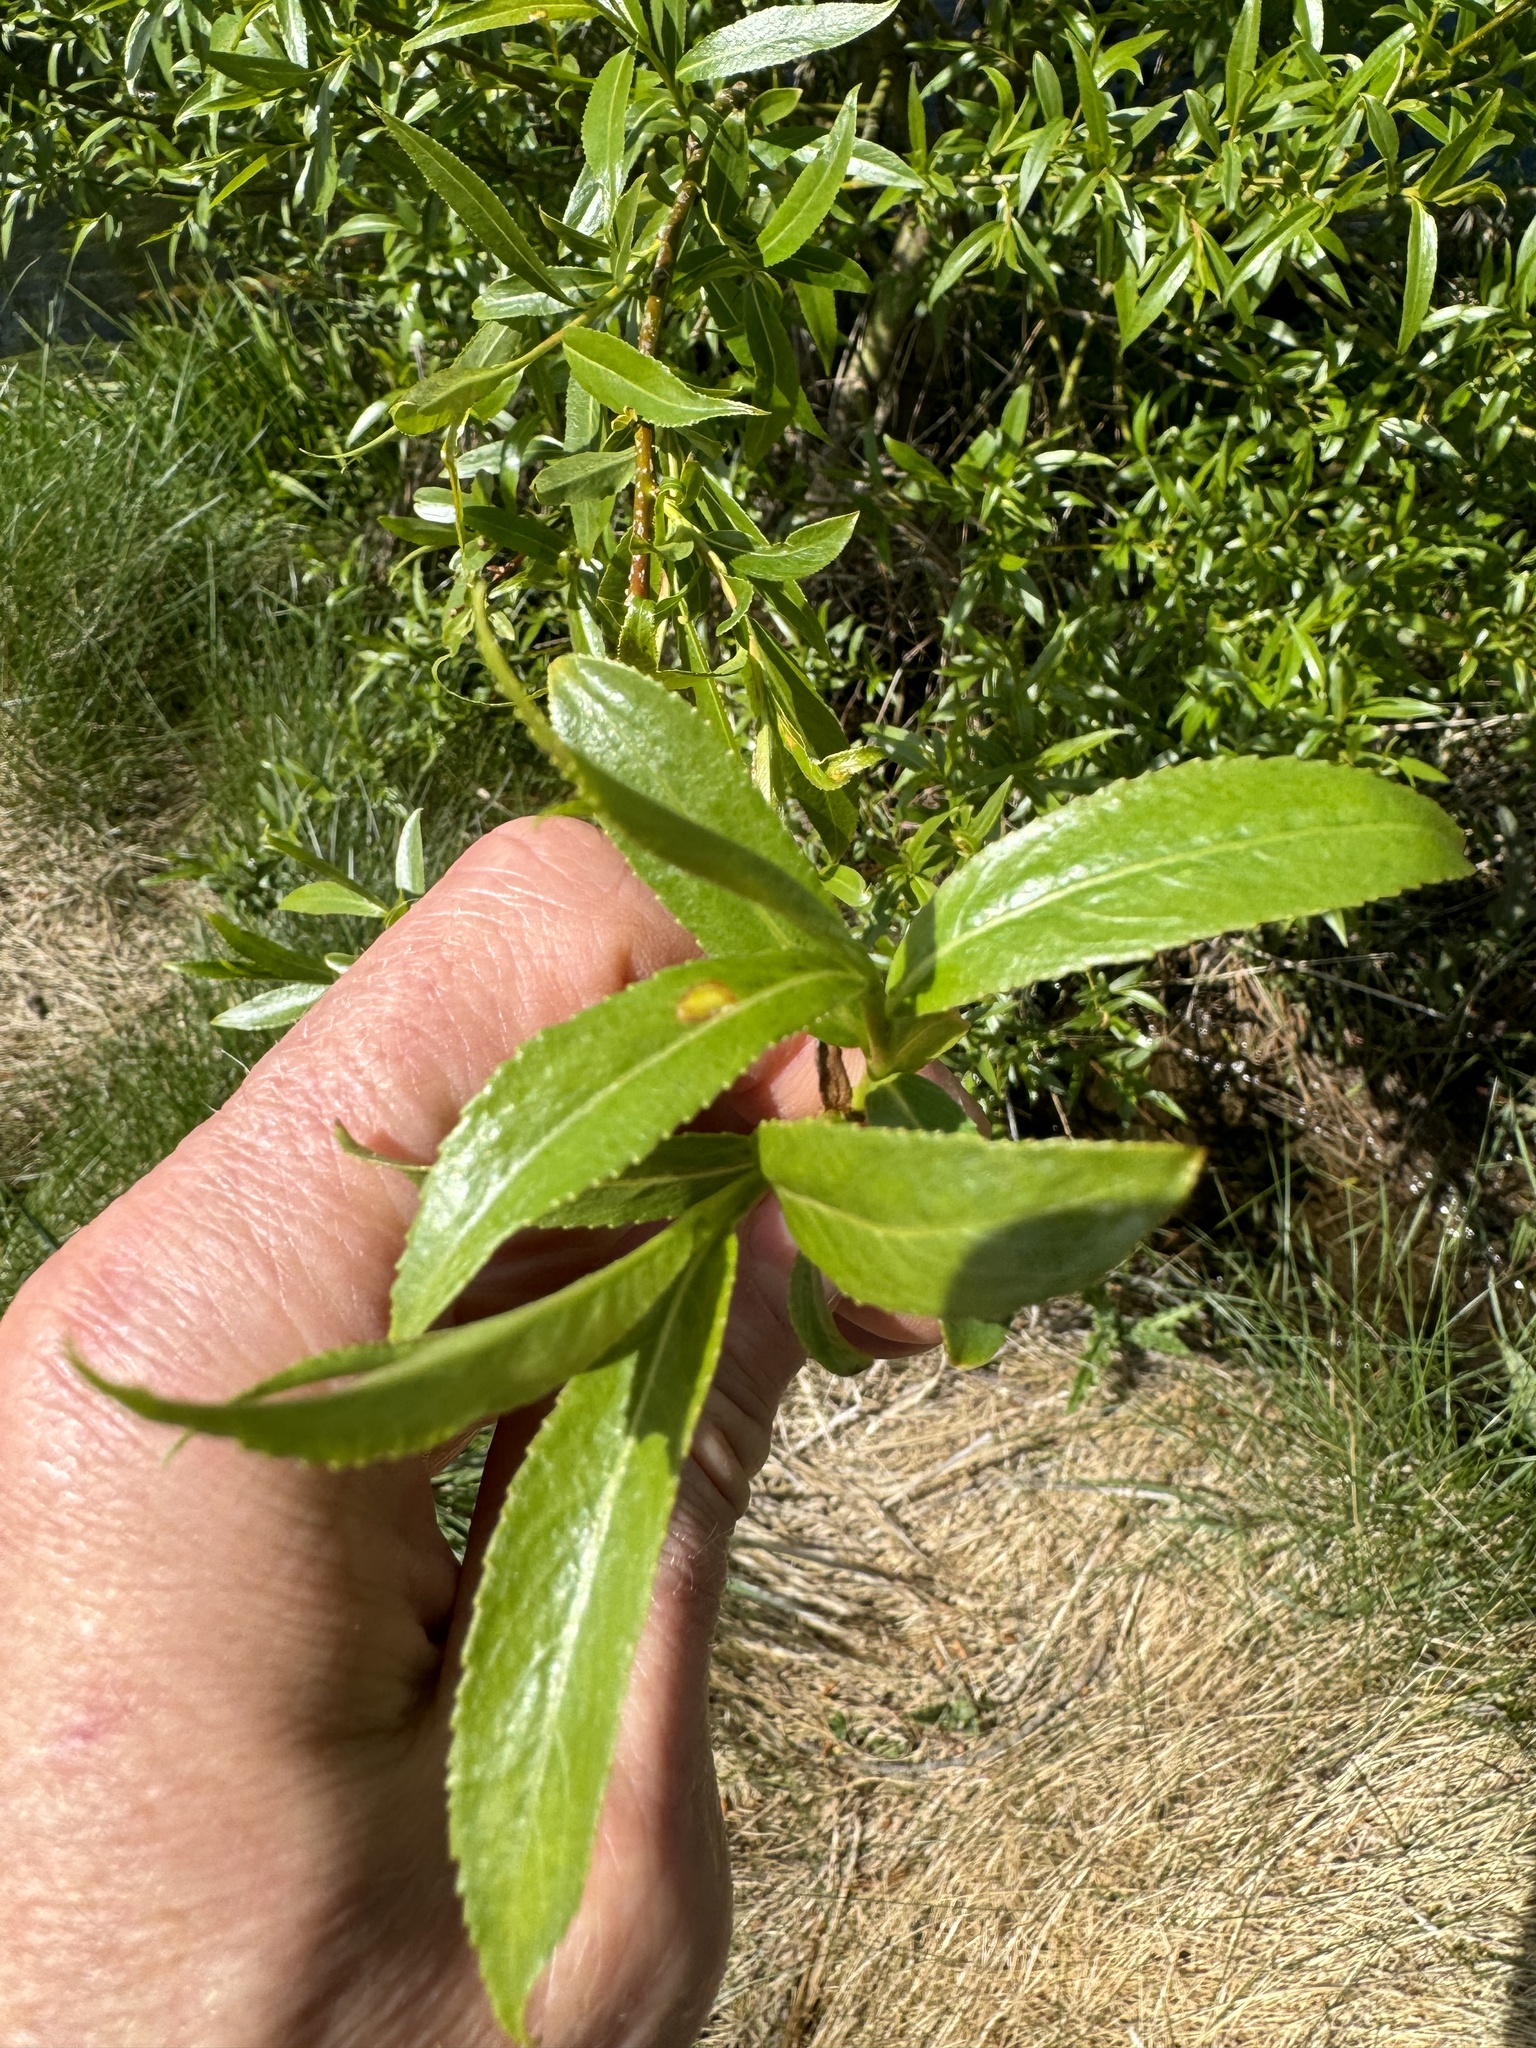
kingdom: Plantae
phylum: Tracheophyta
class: Magnoliopsida
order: Malpighiales
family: Salicaceae
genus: Salix
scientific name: Salix alba
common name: White willow
